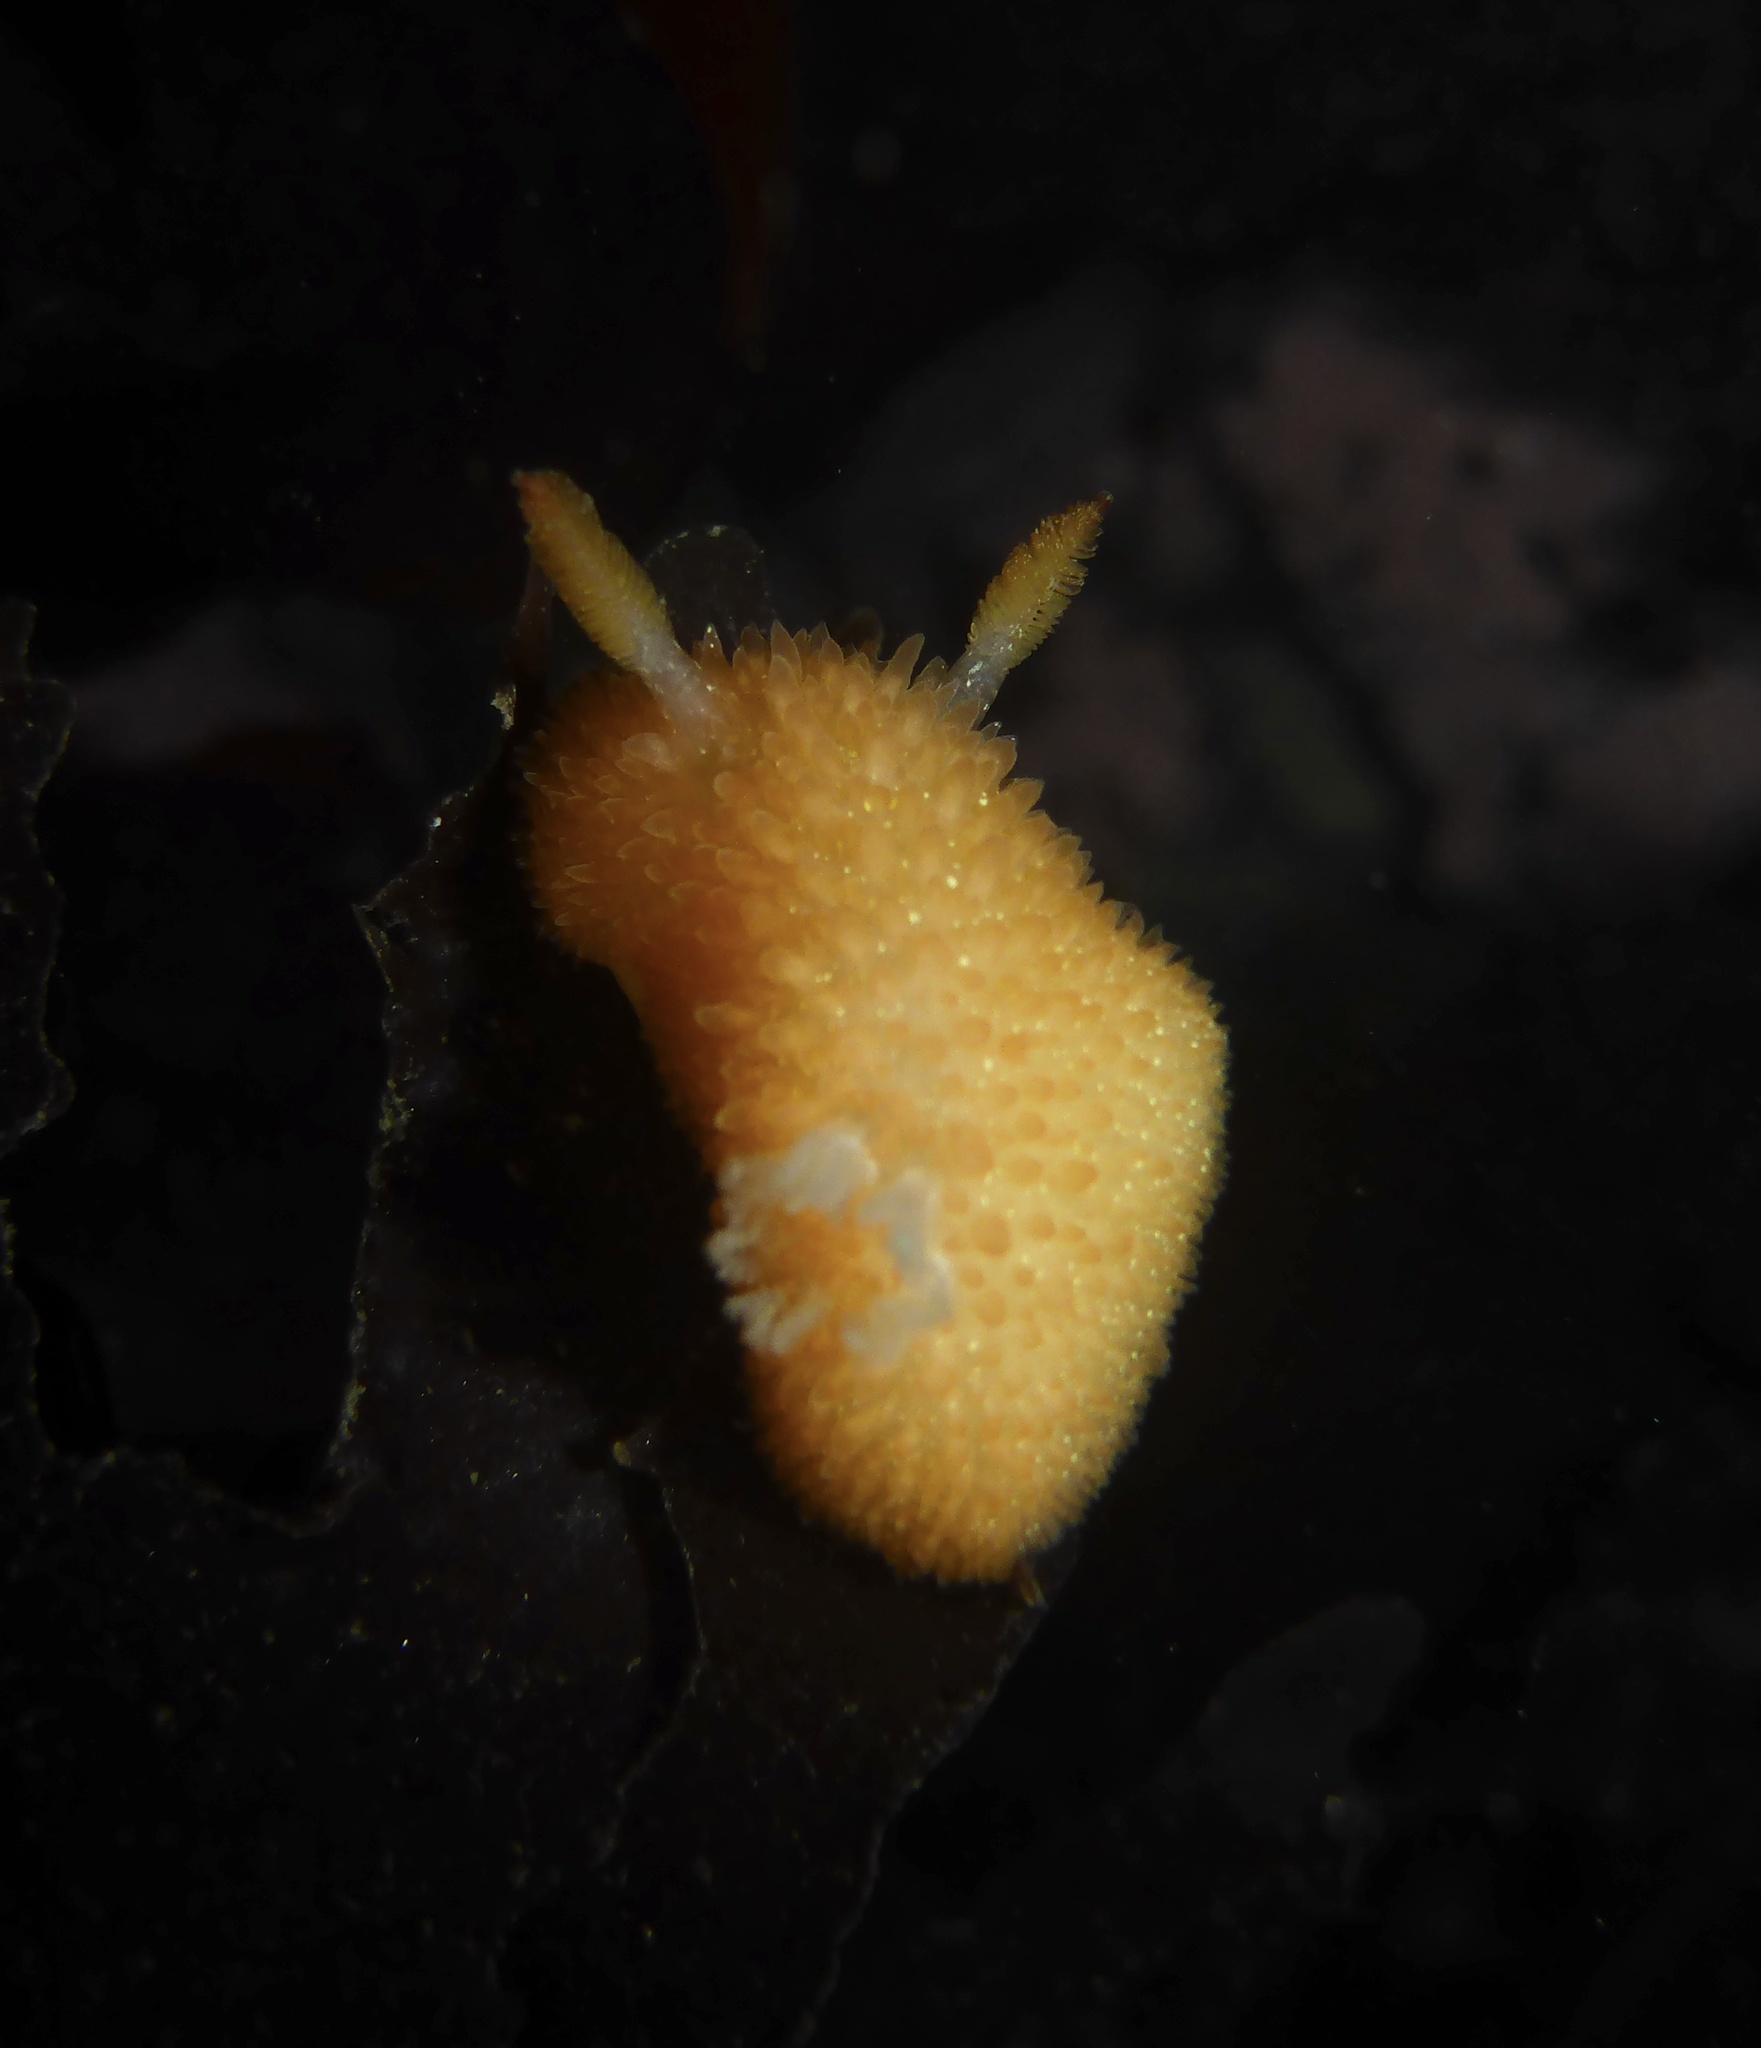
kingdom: Animalia
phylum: Mollusca
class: Gastropoda
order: Nudibranchia
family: Onchidorididae
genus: Acanthodoris
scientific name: Acanthodoris lutea
